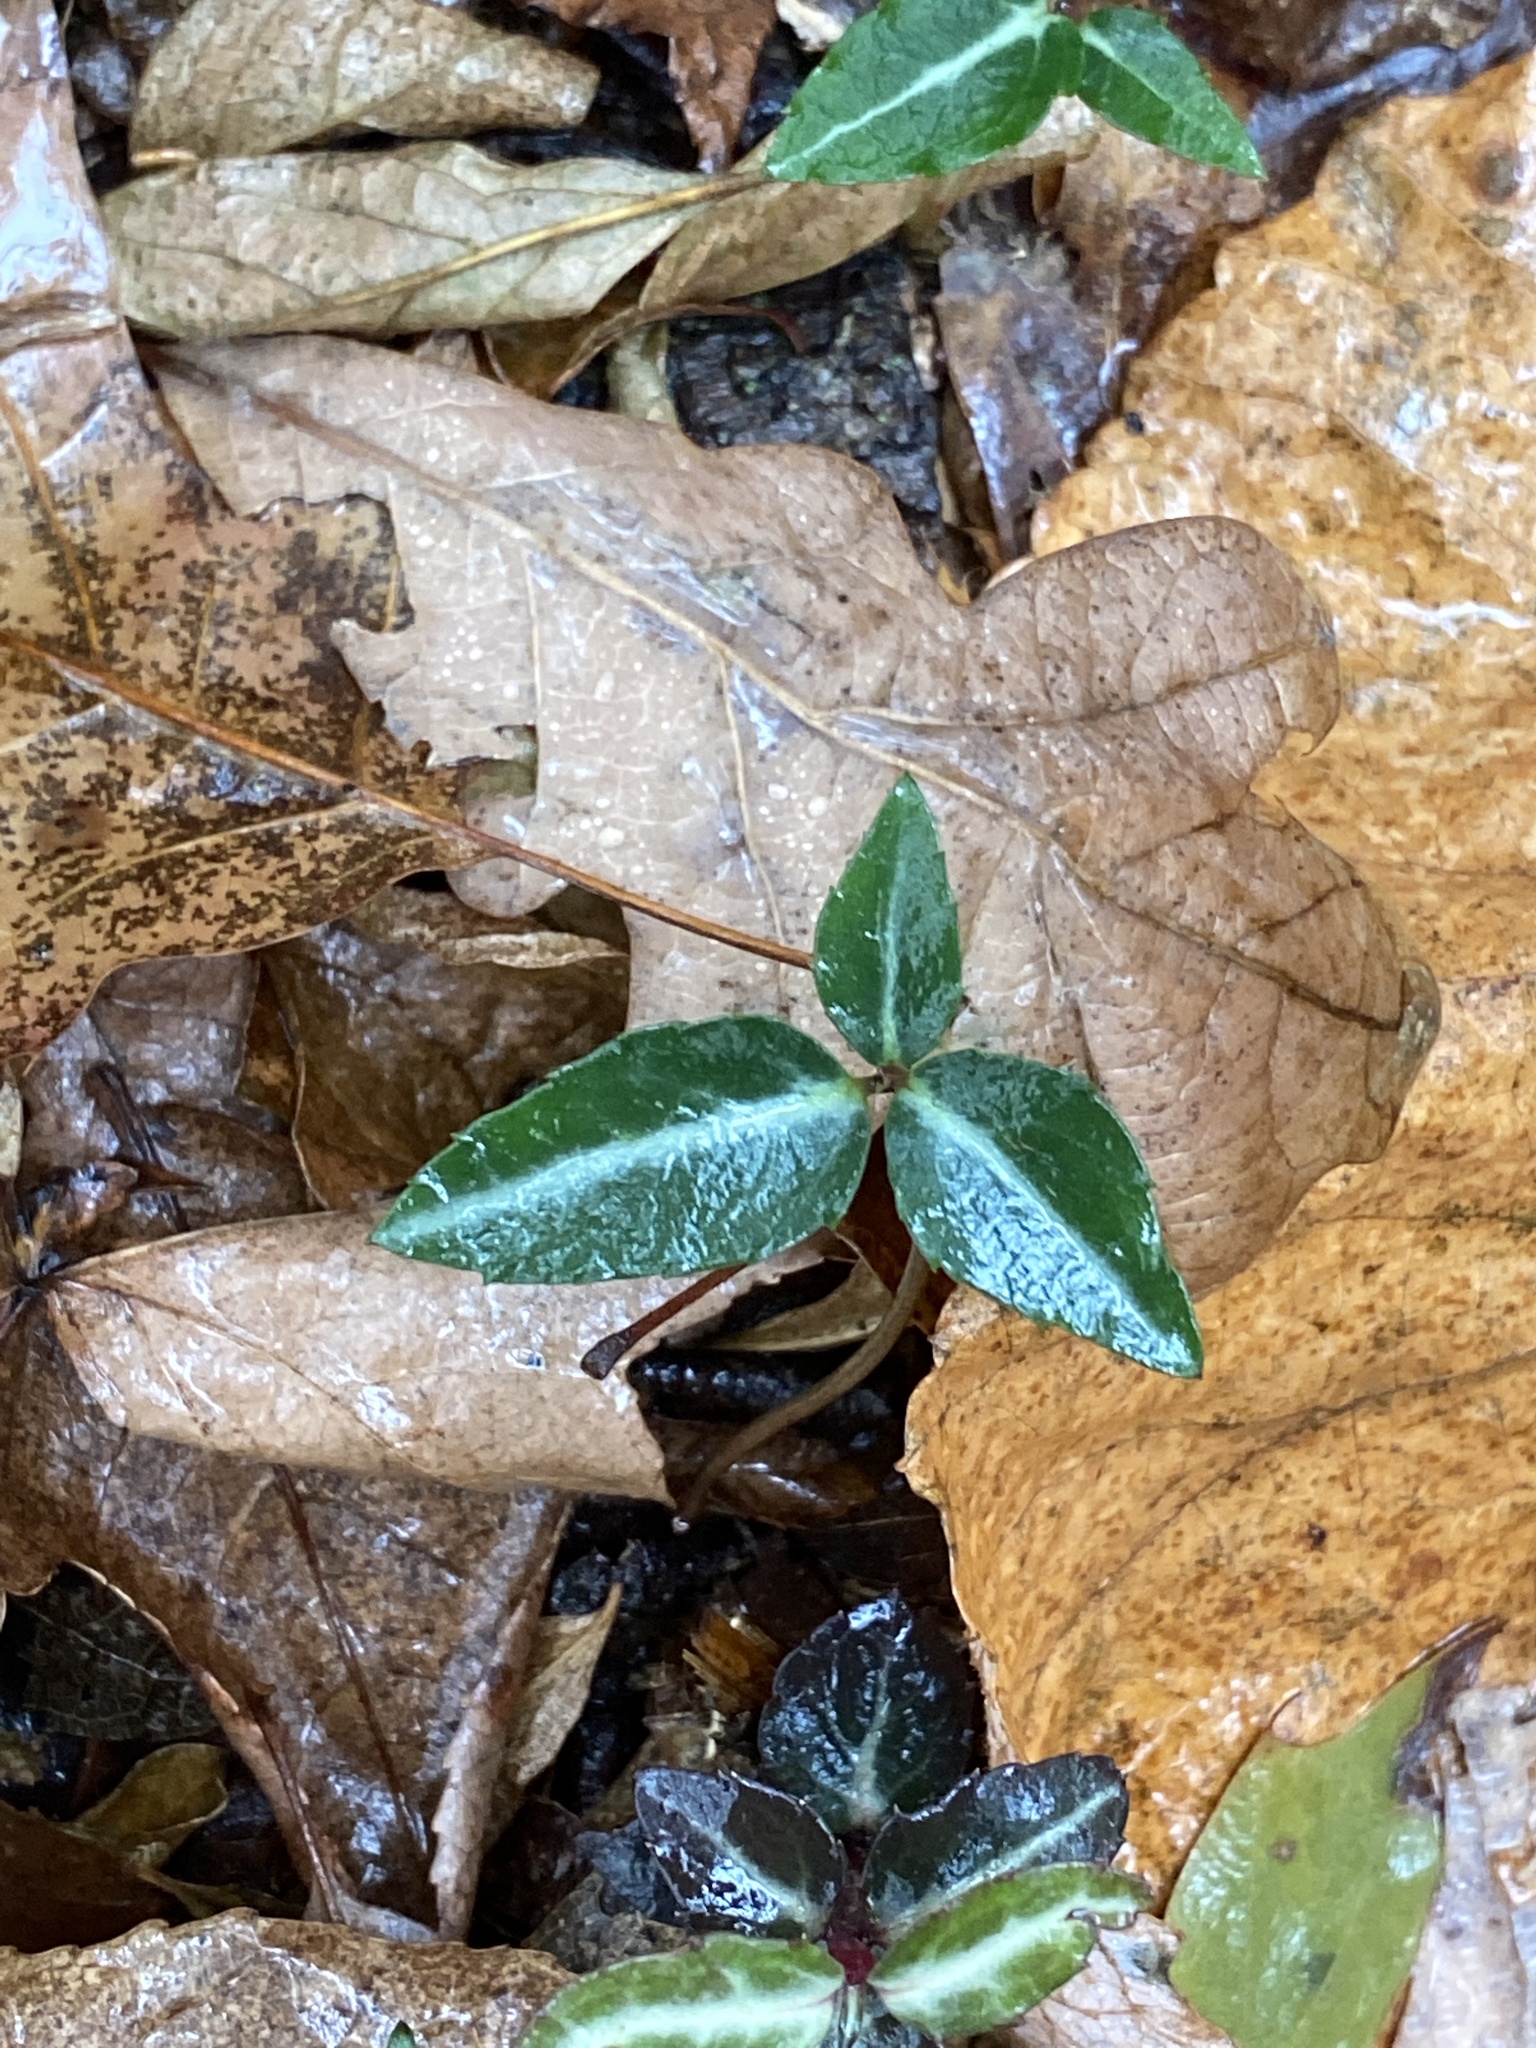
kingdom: Plantae
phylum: Tracheophyta
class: Magnoliopsida
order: Ericales
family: Ericaceae
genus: Chimaphila
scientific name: Chimaphila maculata
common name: Spotted pipsissewa
